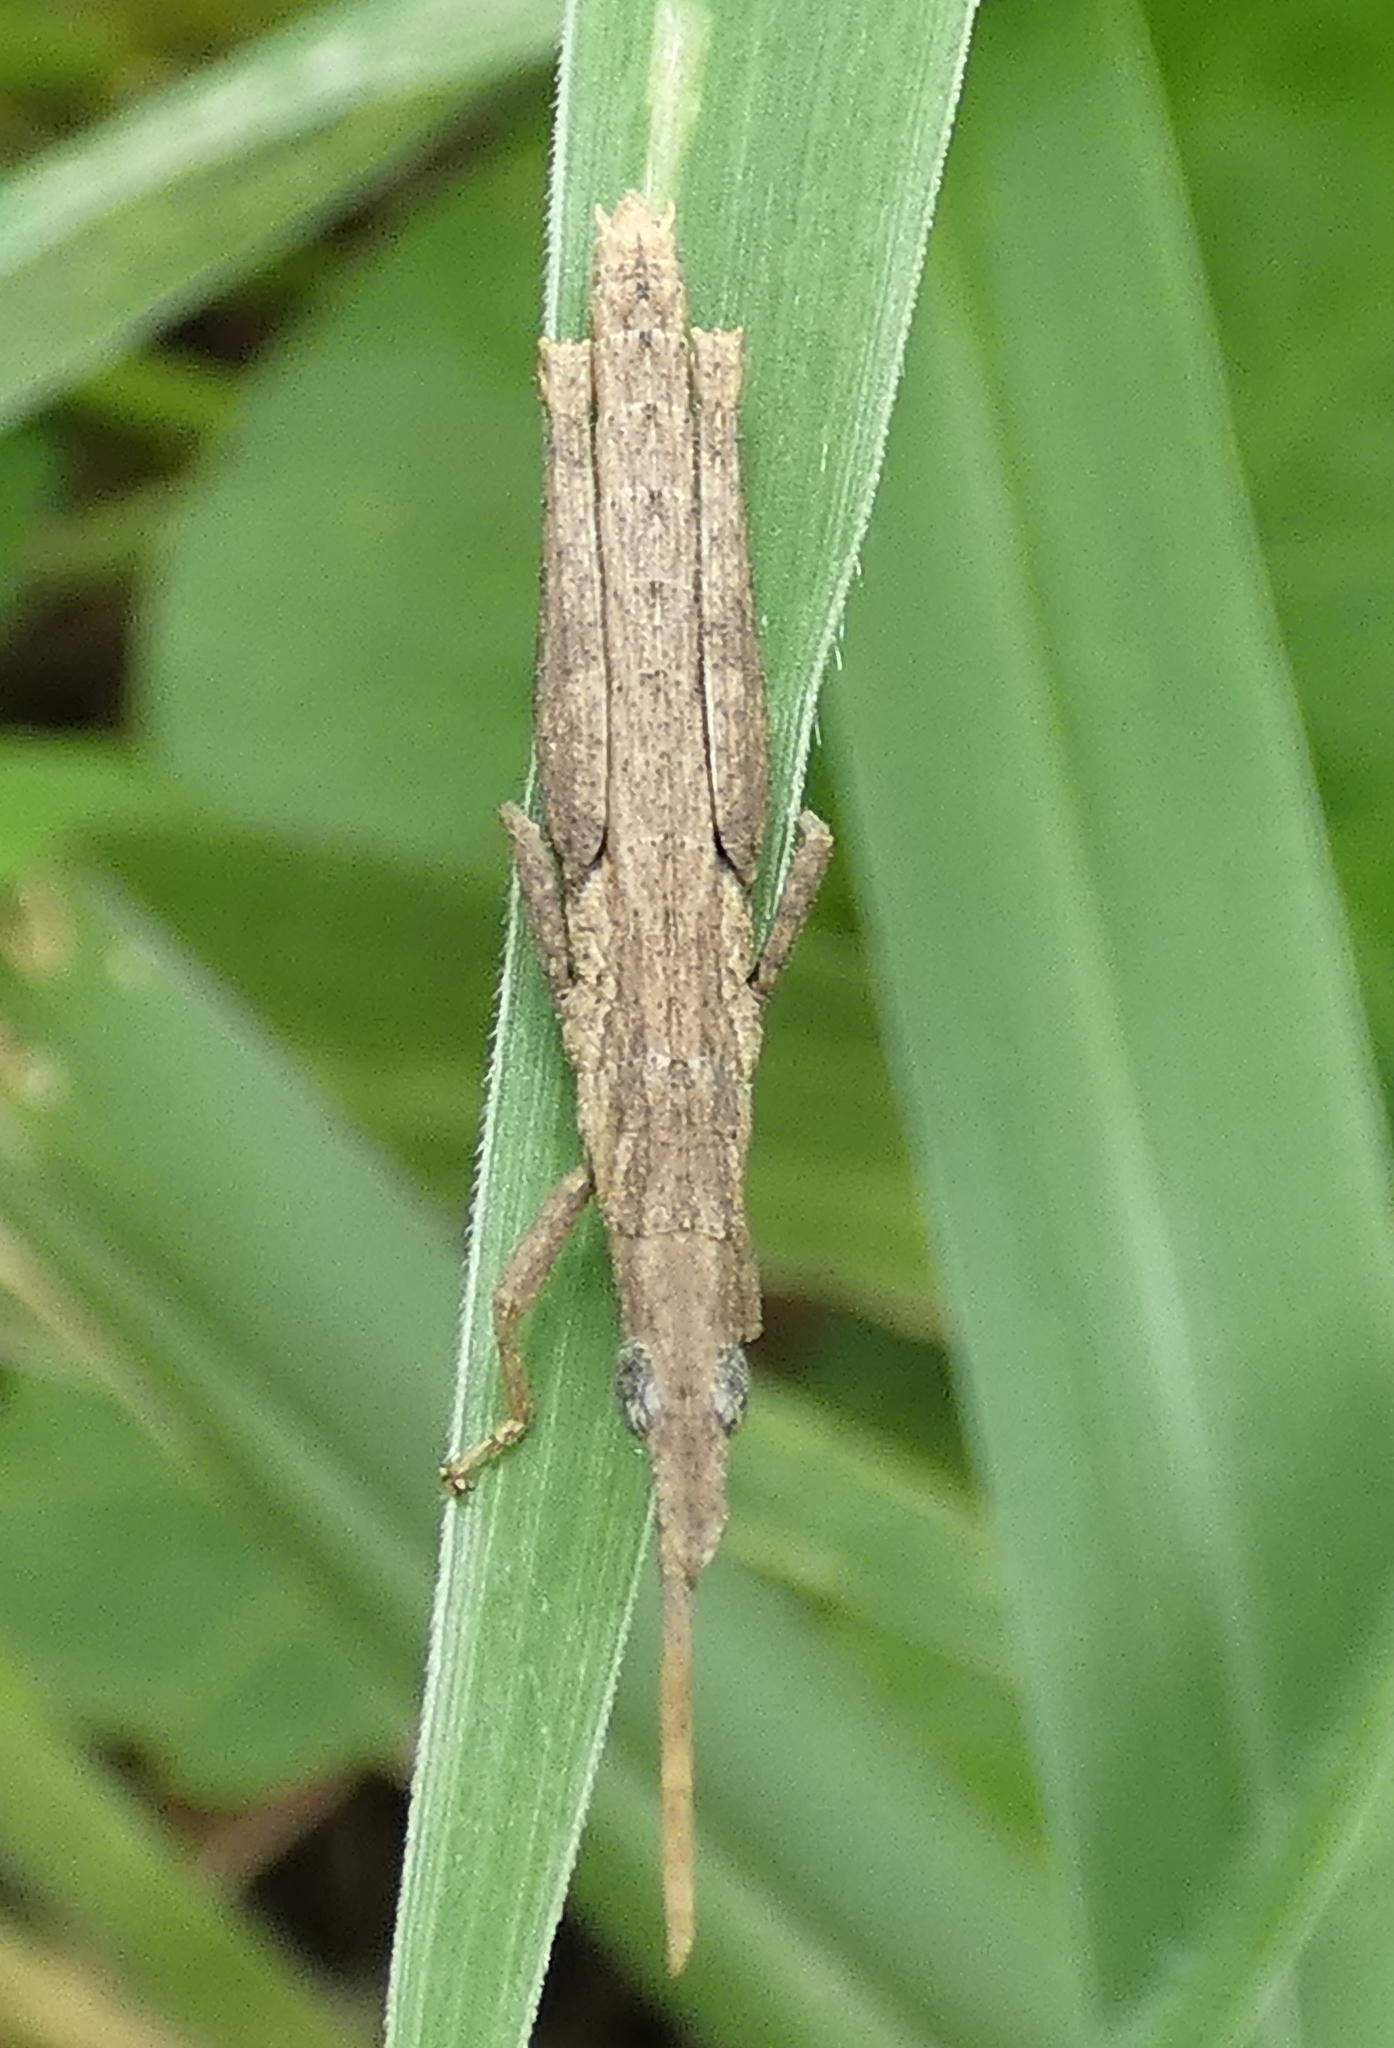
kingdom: Animalia
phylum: Arthropoda
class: Insecta
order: Orthoptera
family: Pyrgomorphidae
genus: Algete
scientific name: Algete brunneri
